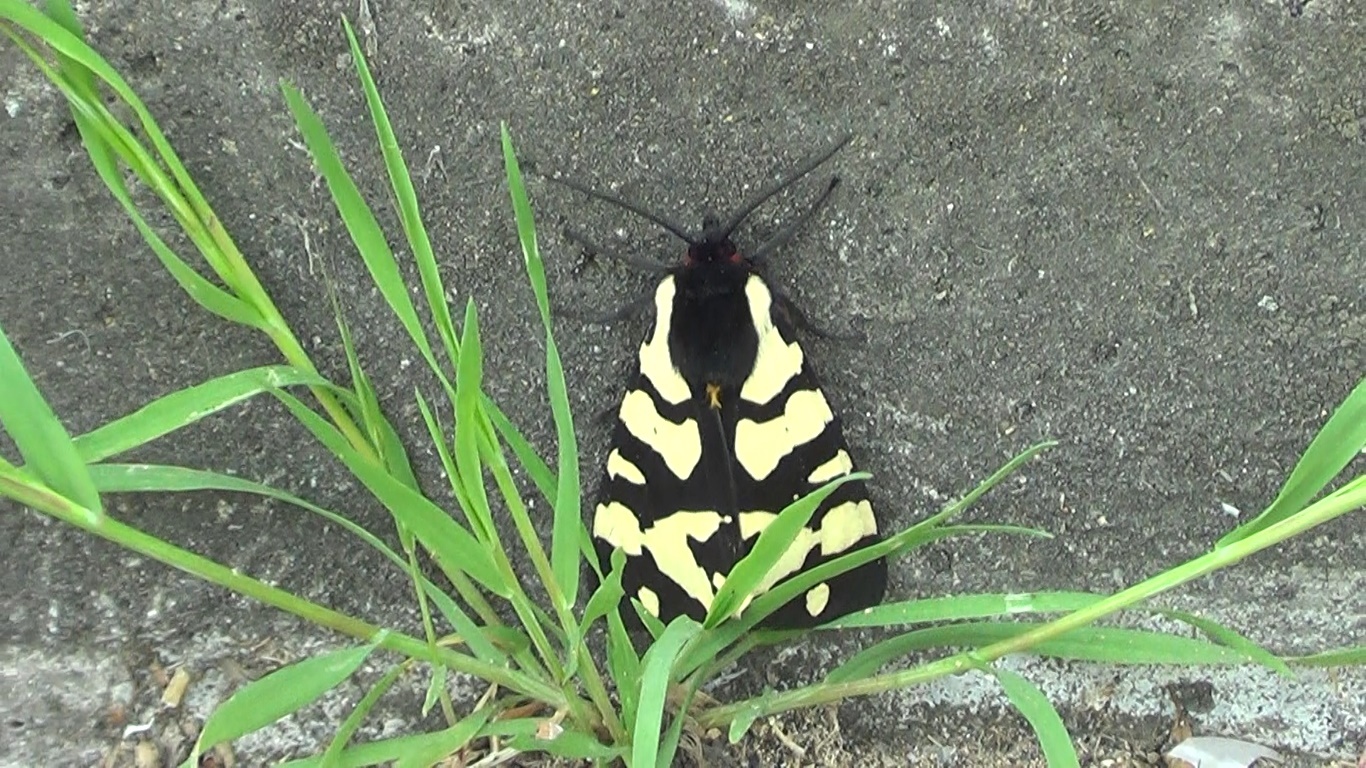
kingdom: Animalia
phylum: Arthropoda
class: Insecta
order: Lepidoptera
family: Erebidae
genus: Epicallia
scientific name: Epicallia villica
